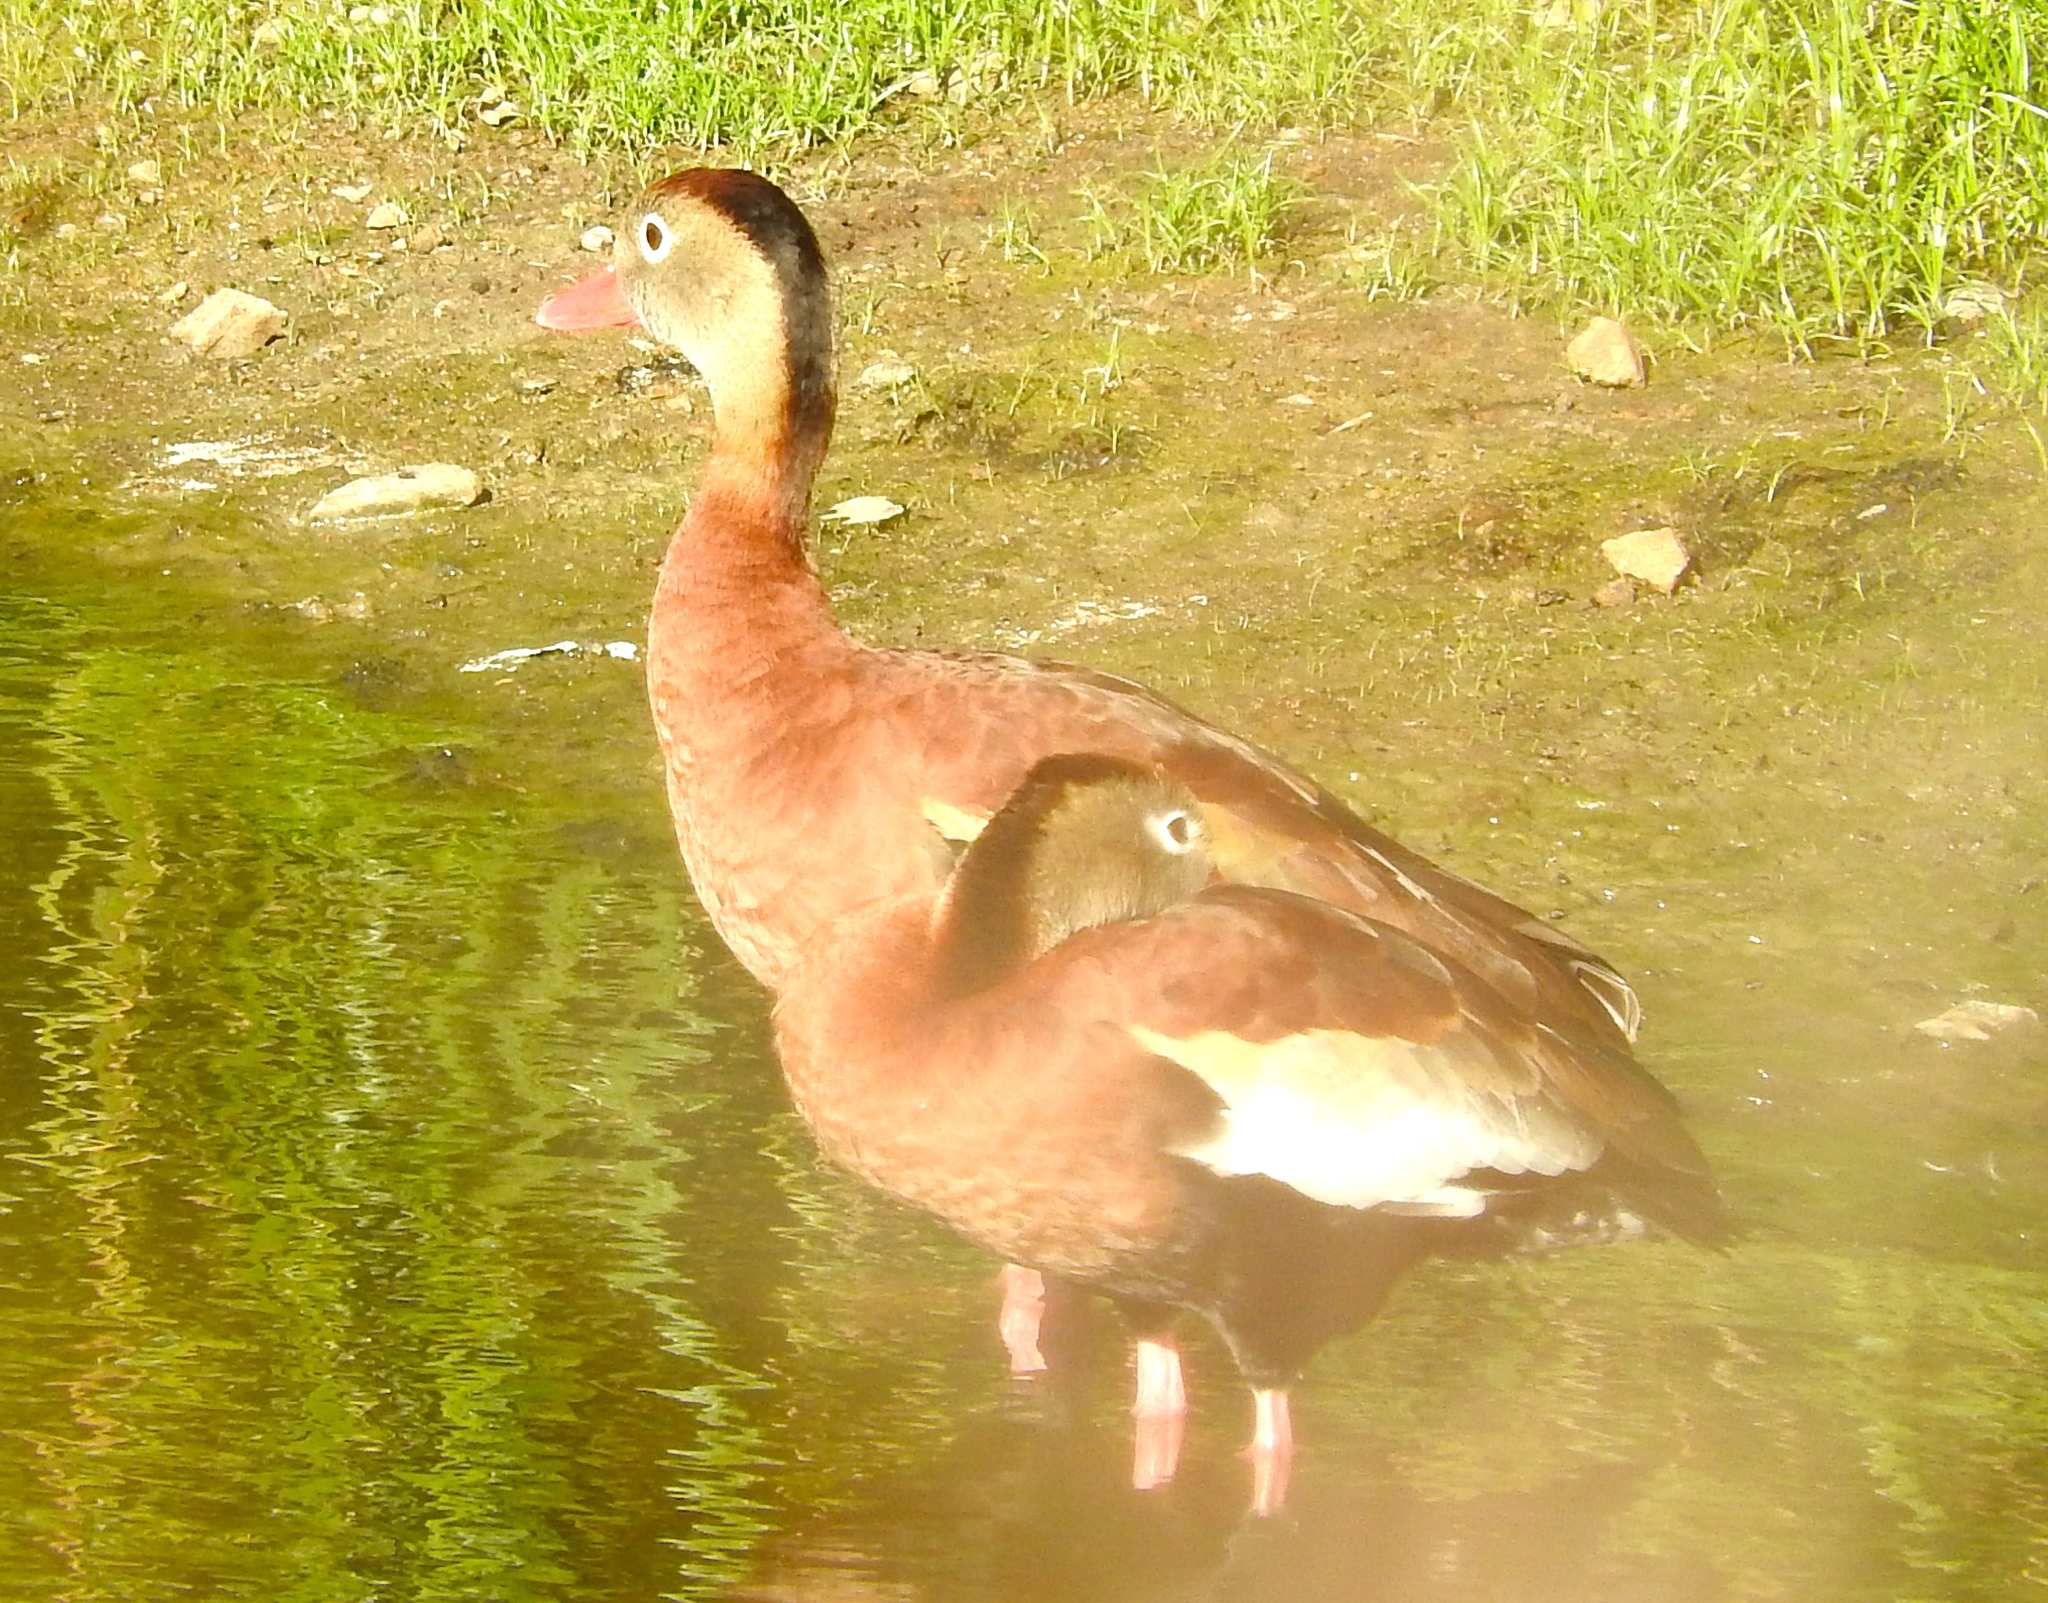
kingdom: Animalia
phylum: Chordata
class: Aves
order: Anseriformes
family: Anatidae
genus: Dendrocygna
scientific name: Dendrocygna autumnalis
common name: Black-bellied whistling duck
